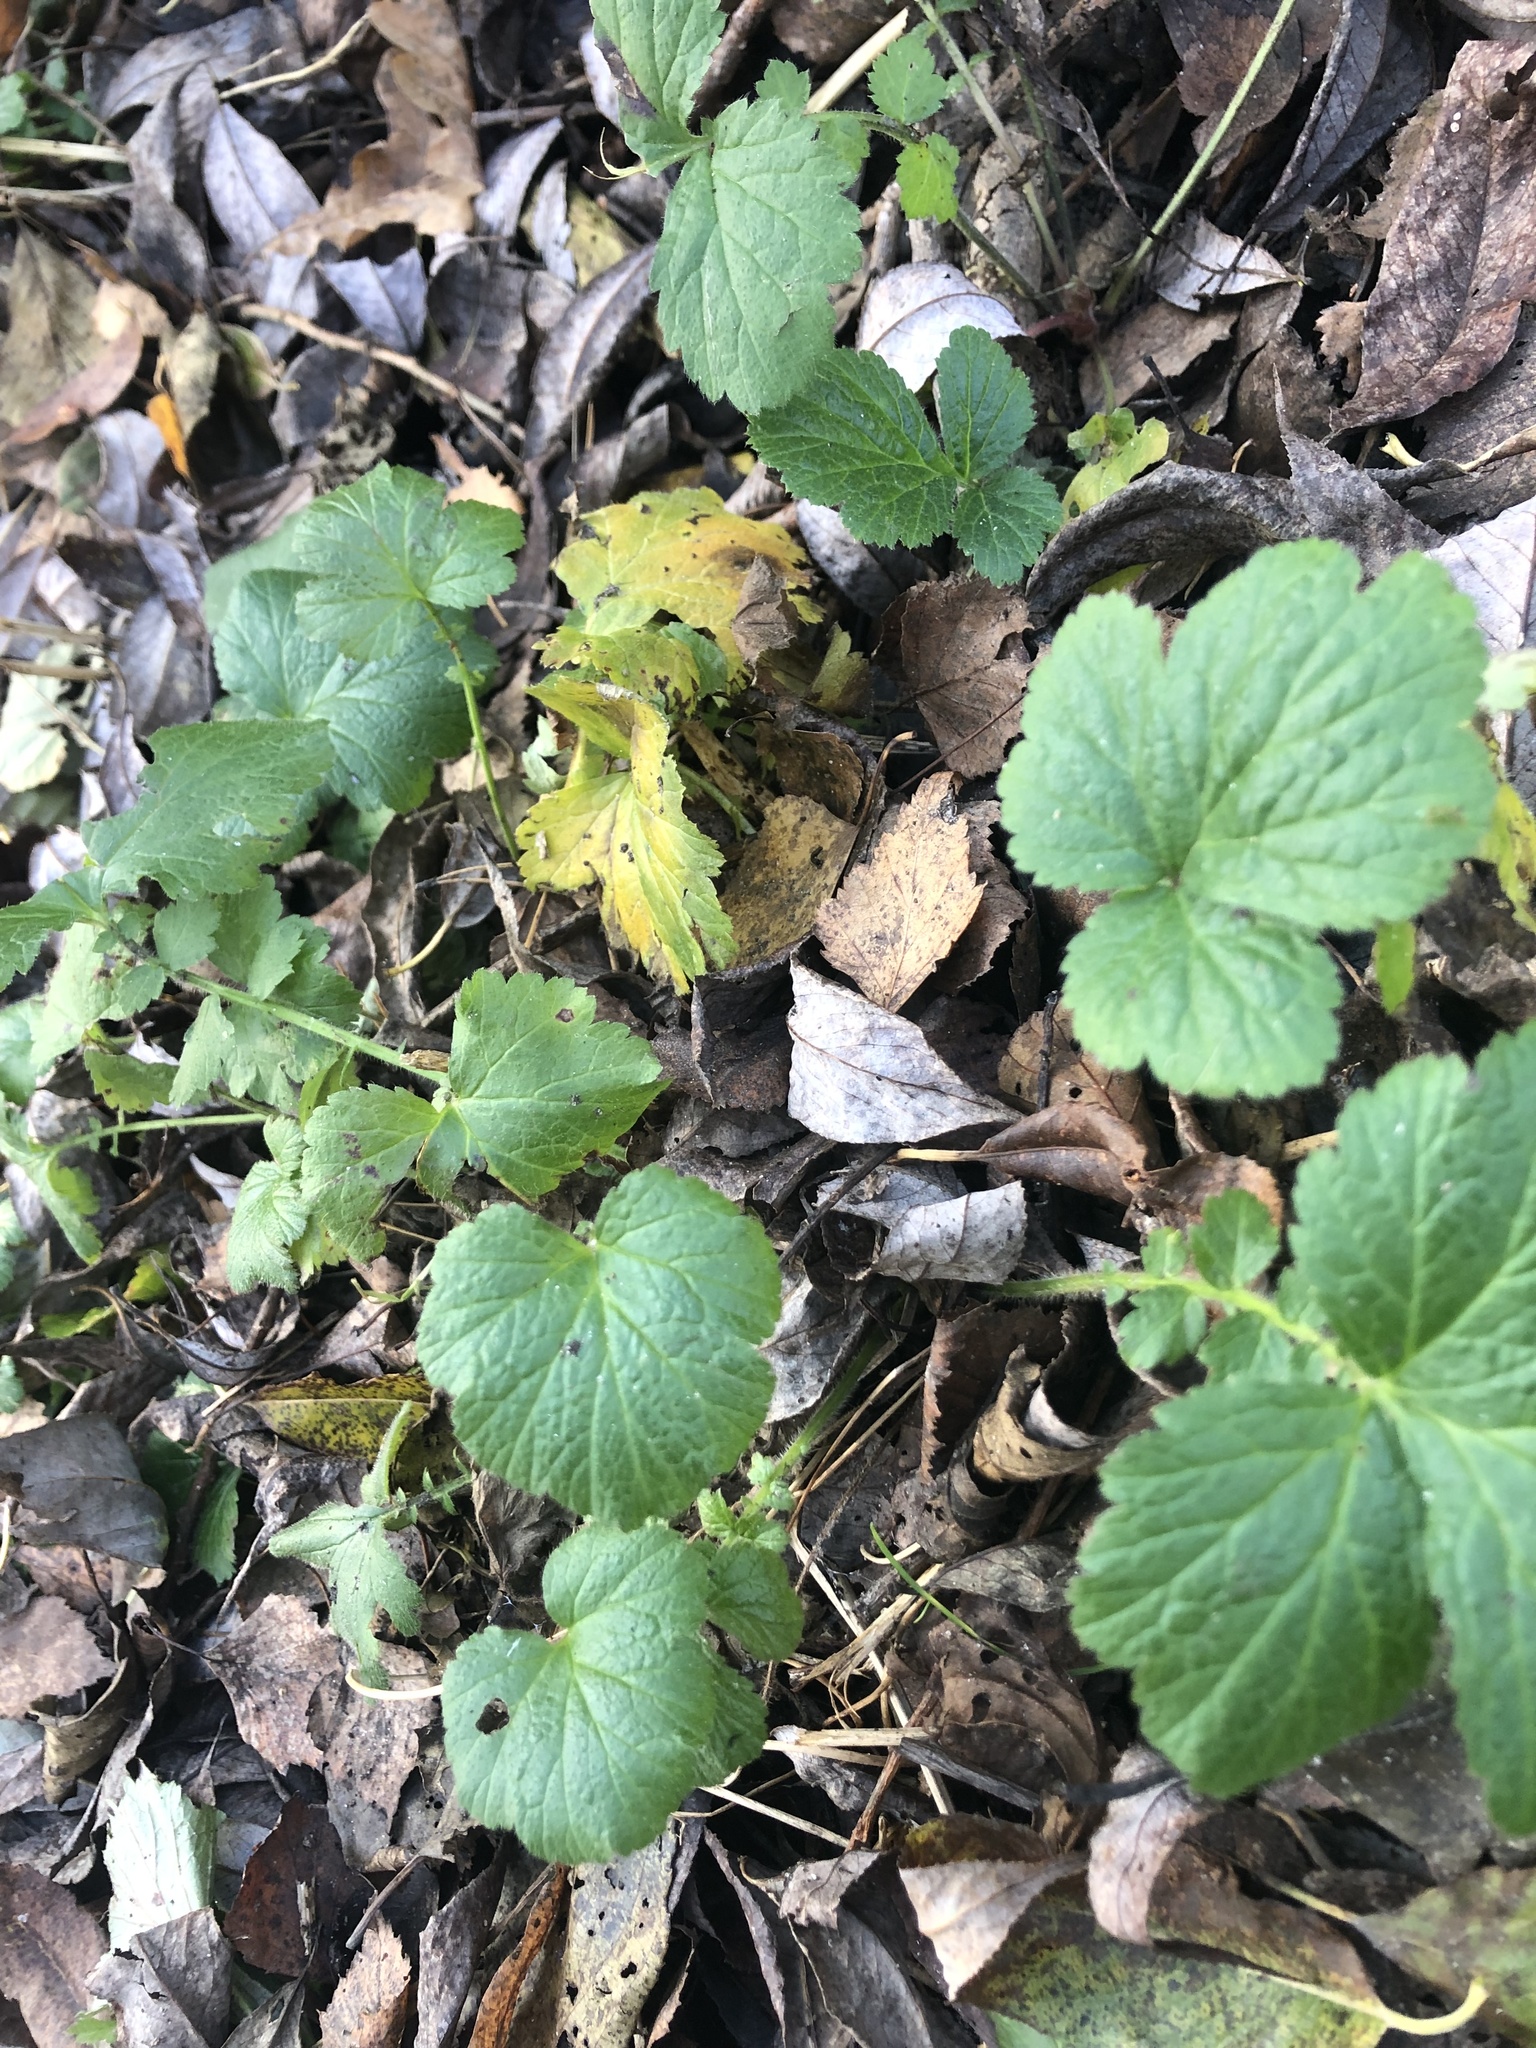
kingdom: Plantae
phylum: Tracheophyta
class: Magnoliopsida
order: Rosales
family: Rosaceae
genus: Geum
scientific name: Geum
